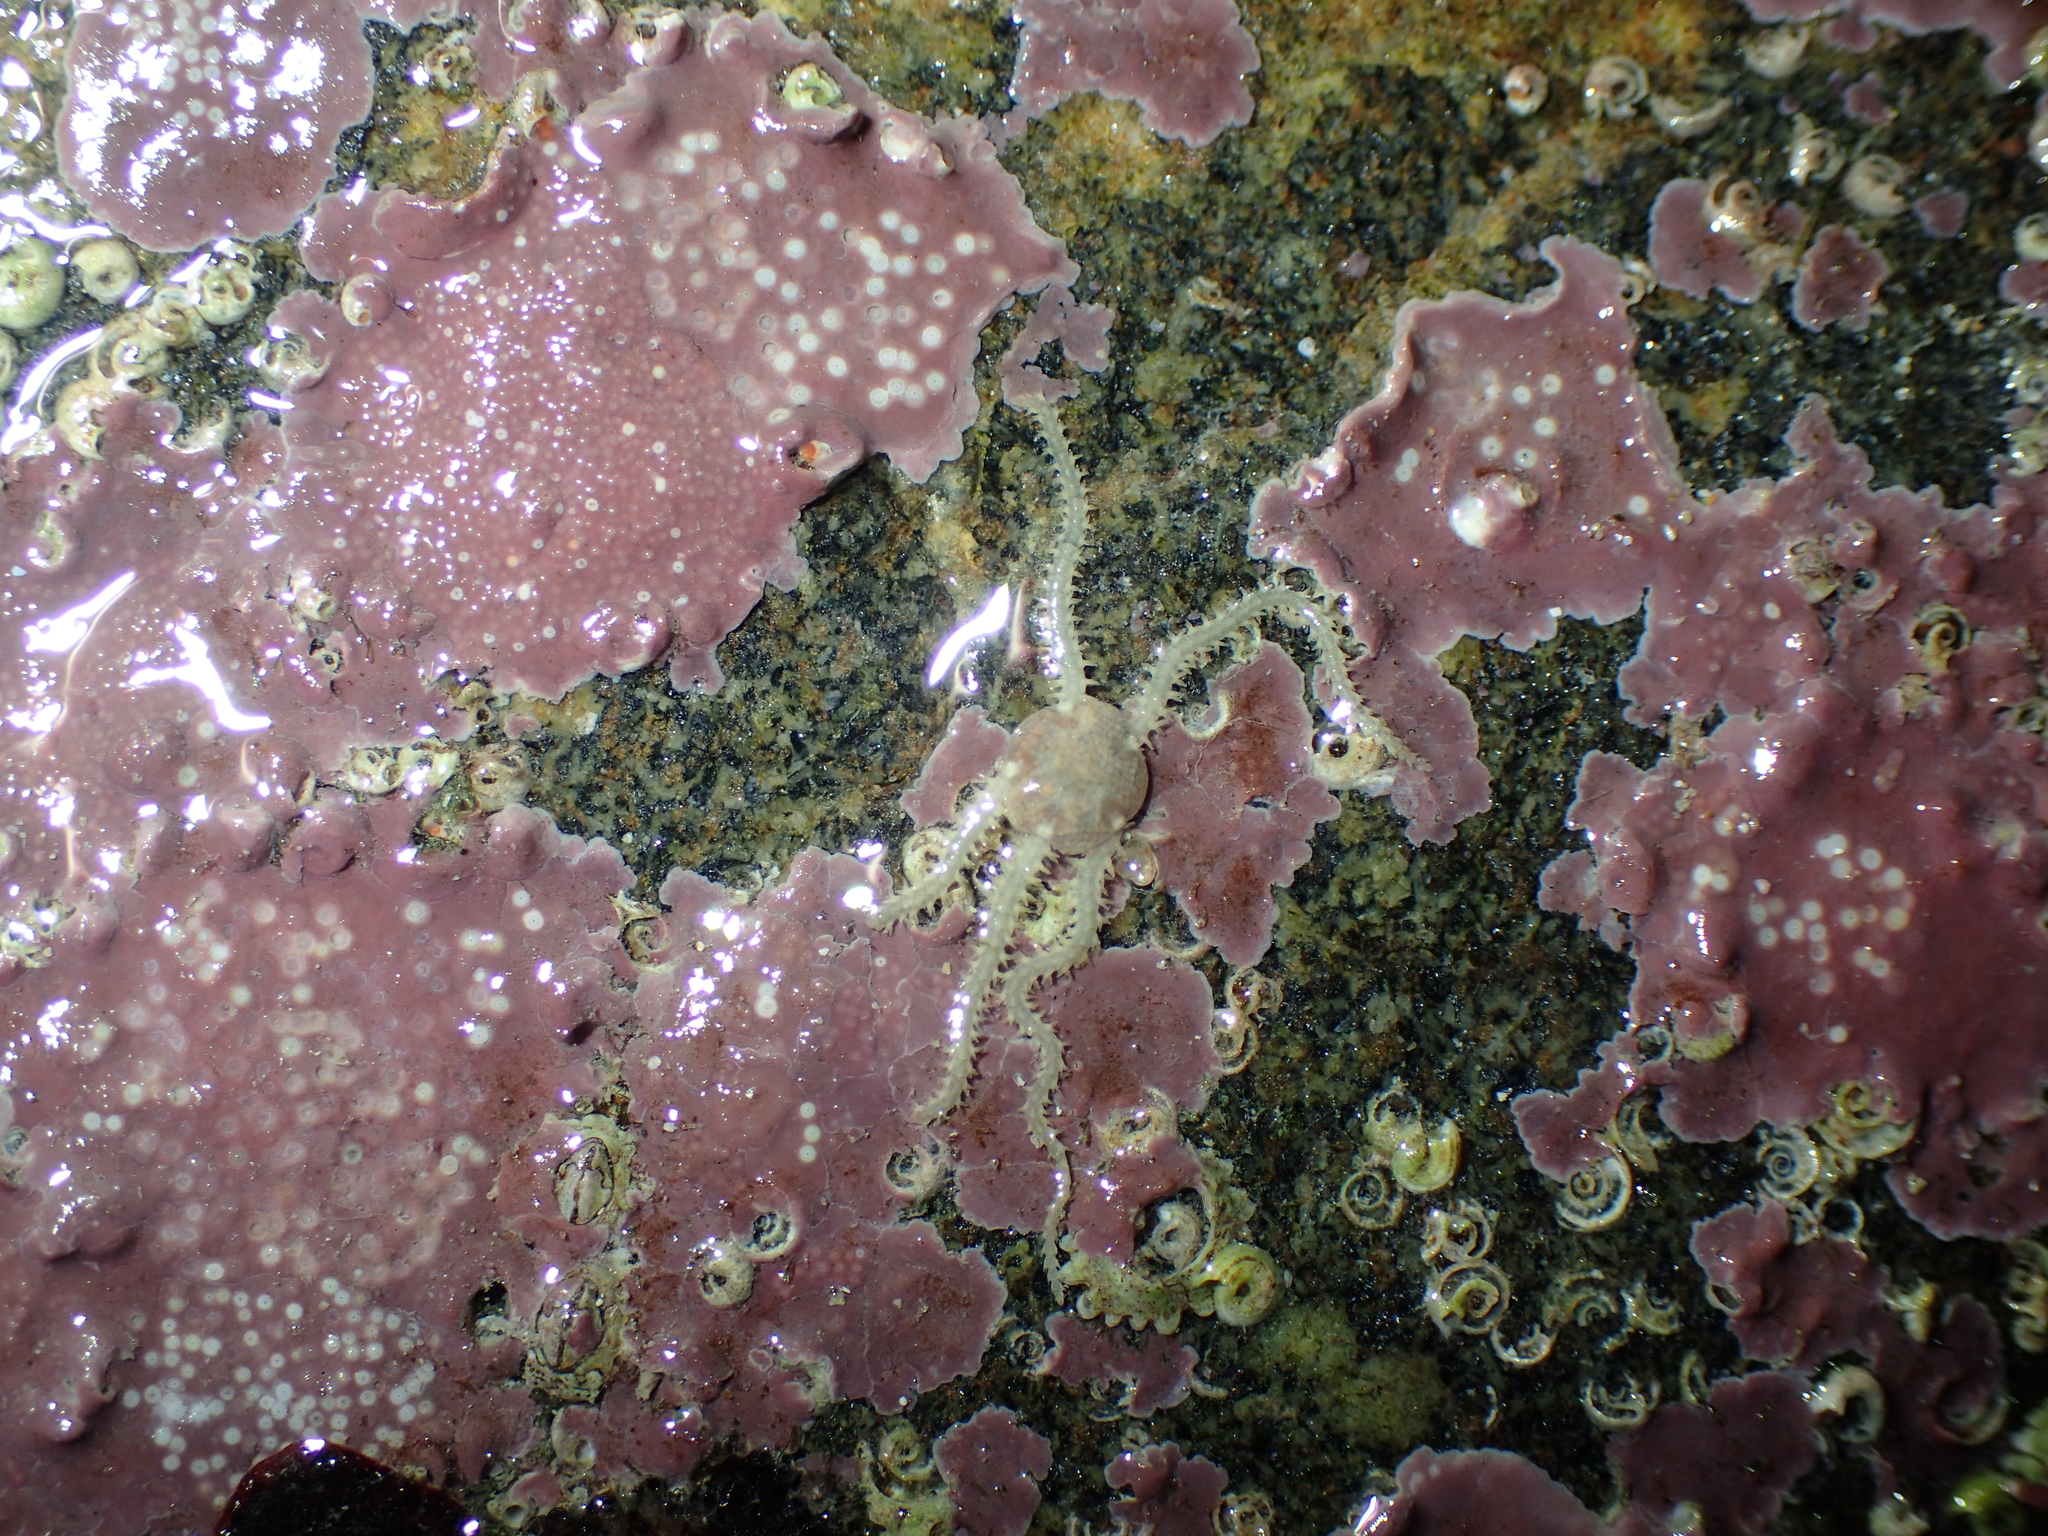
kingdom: Animalia
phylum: Echinodermata
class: Ophiuroidea
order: Amphilepidida
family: Amphiuridae
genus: Amphipholis
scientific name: Amphipholis squamata
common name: Brooding snake star
